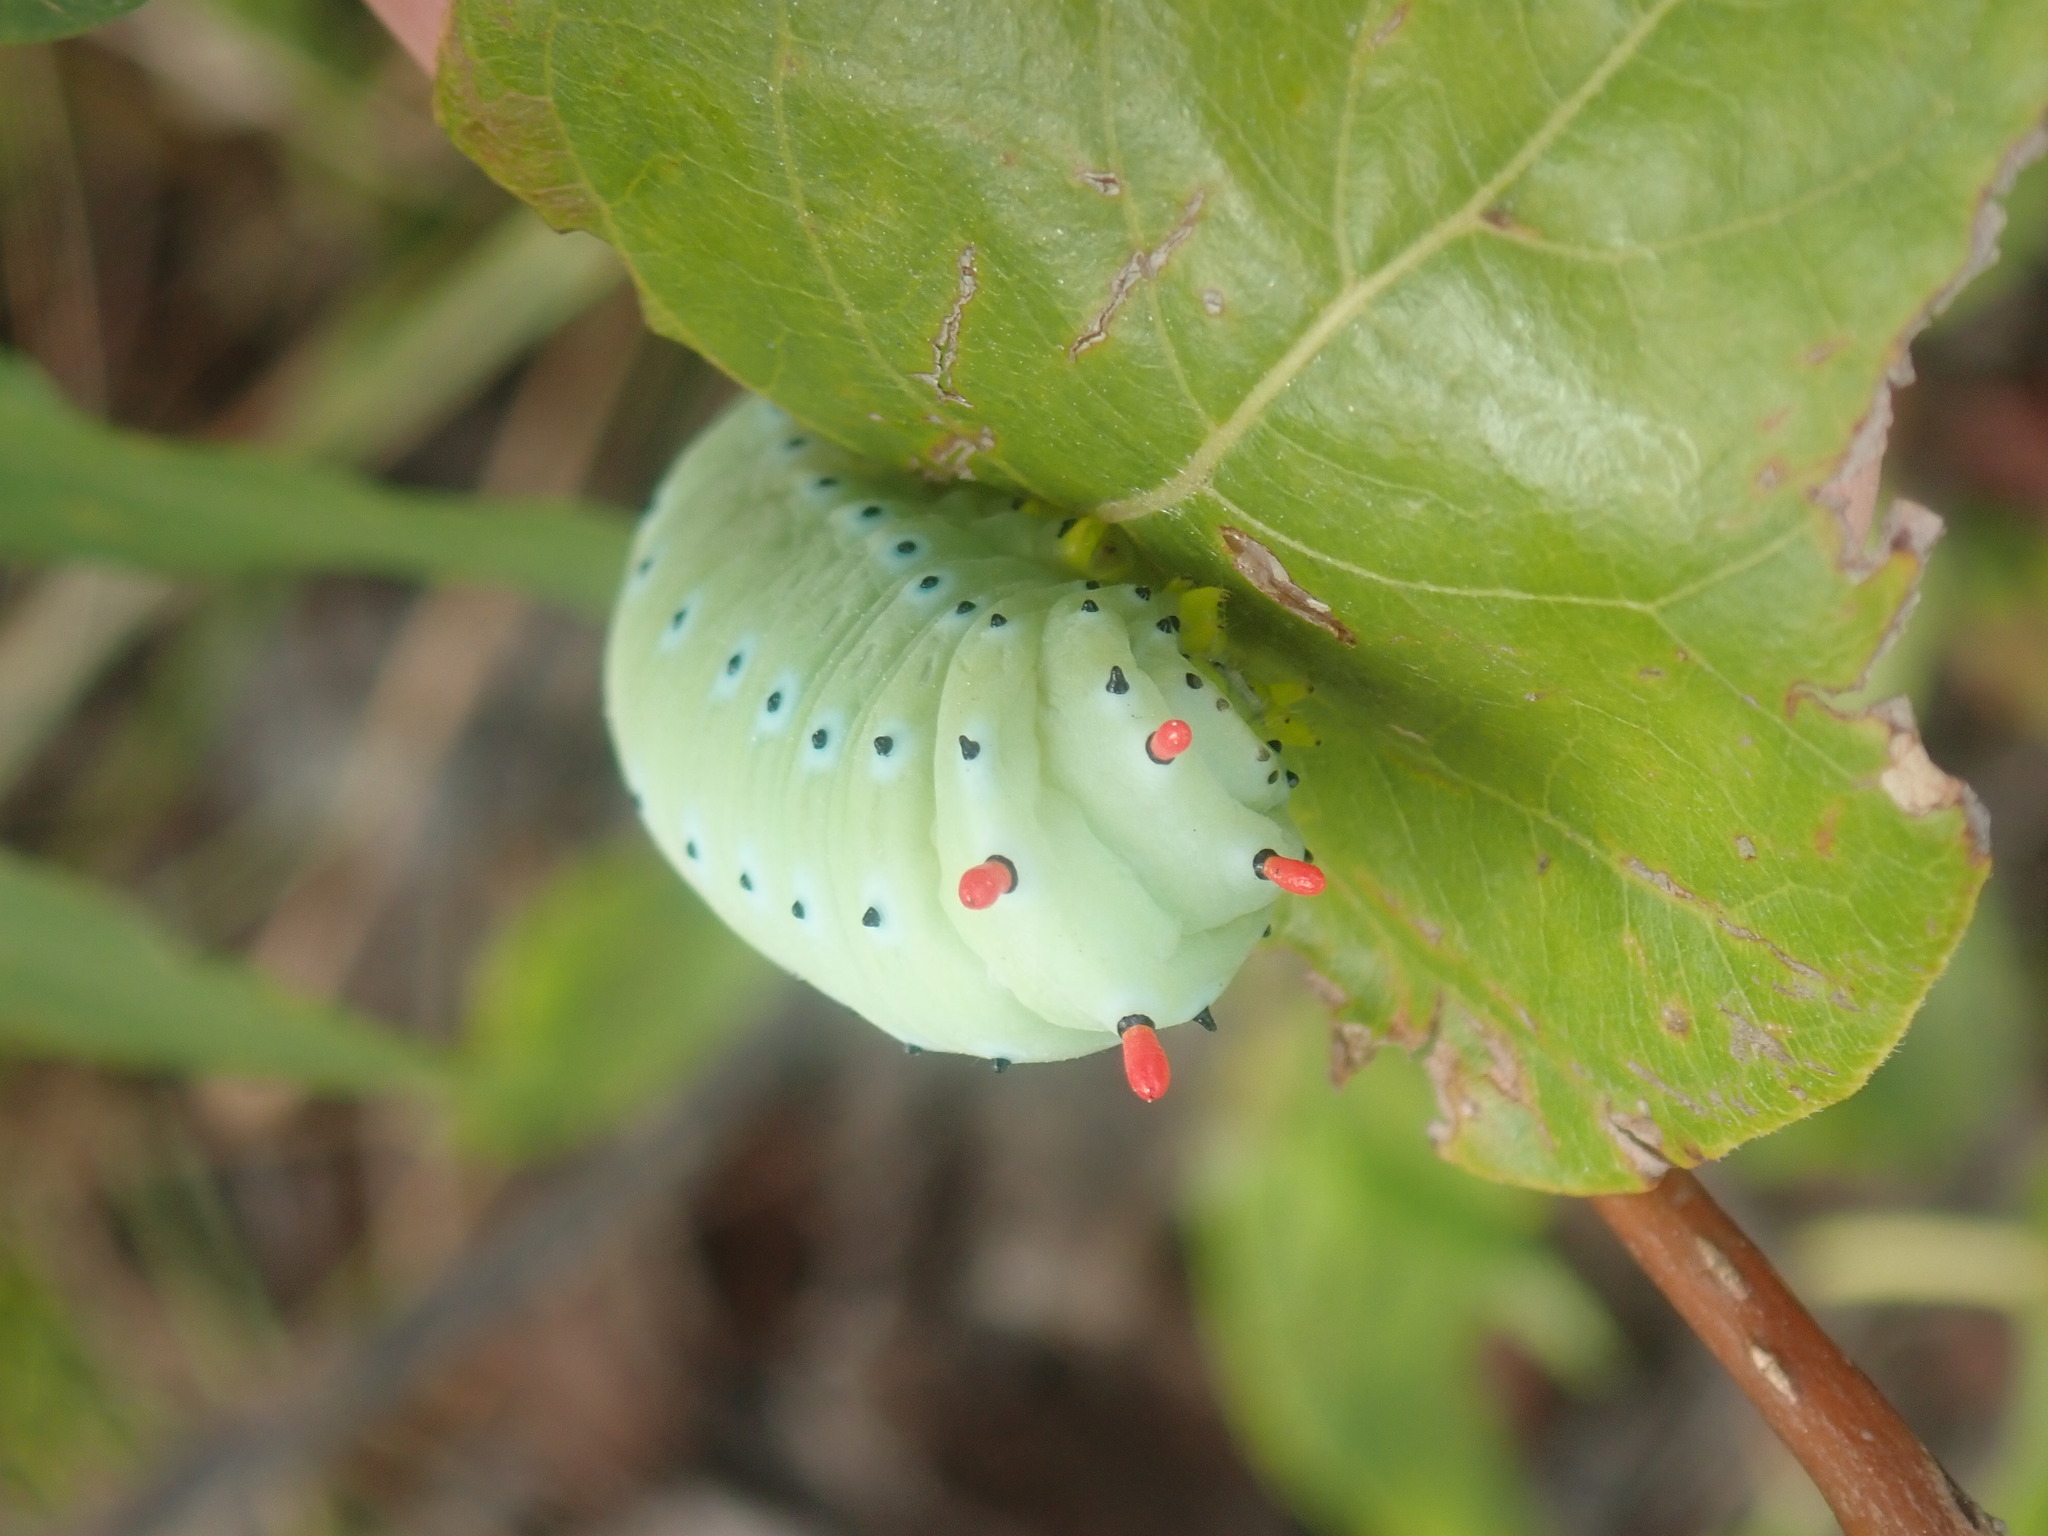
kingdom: Animalia
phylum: Arthropoda
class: Insecta
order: Lepidoptera
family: Saturniidae
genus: Callosamia
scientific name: Callosamia promethea
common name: Promethea silkmoth
